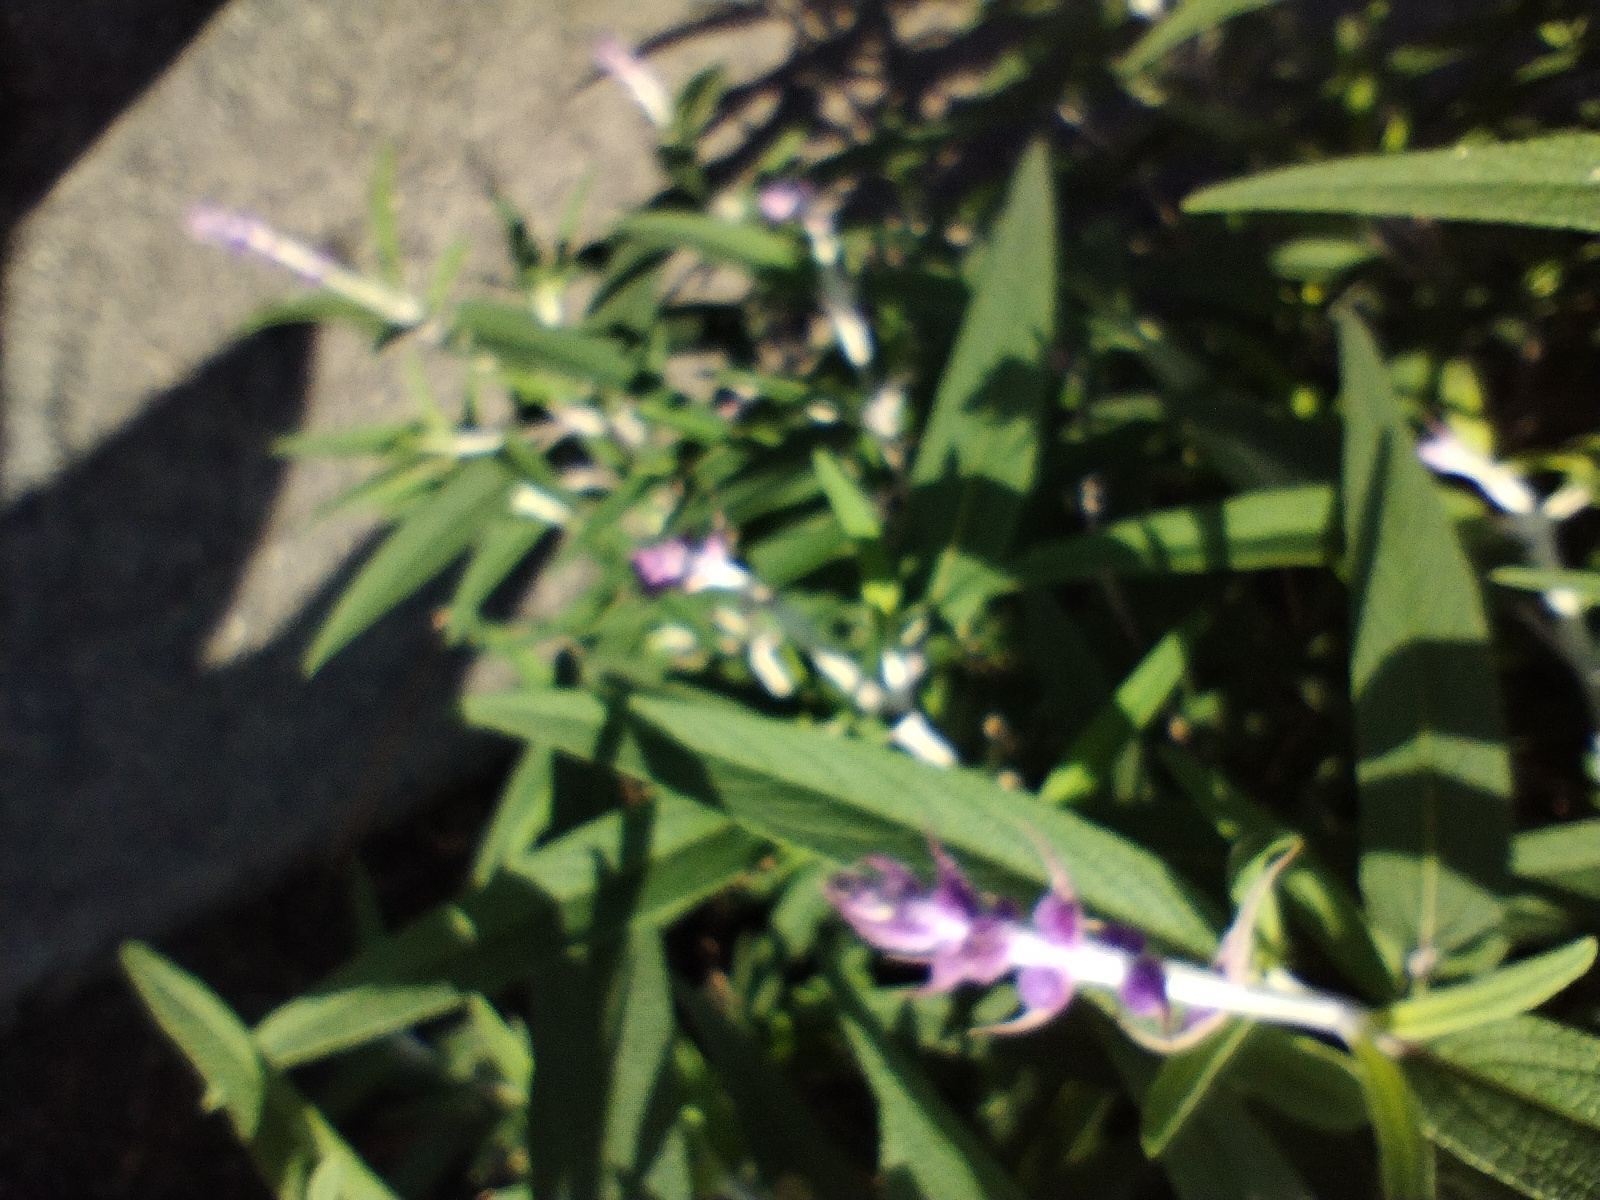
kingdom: Animalia
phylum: Arthropoda
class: Insecta
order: Lepidoptera
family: Lycaenidae
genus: Leptotes
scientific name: Leptotes marina
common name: Marine blue
